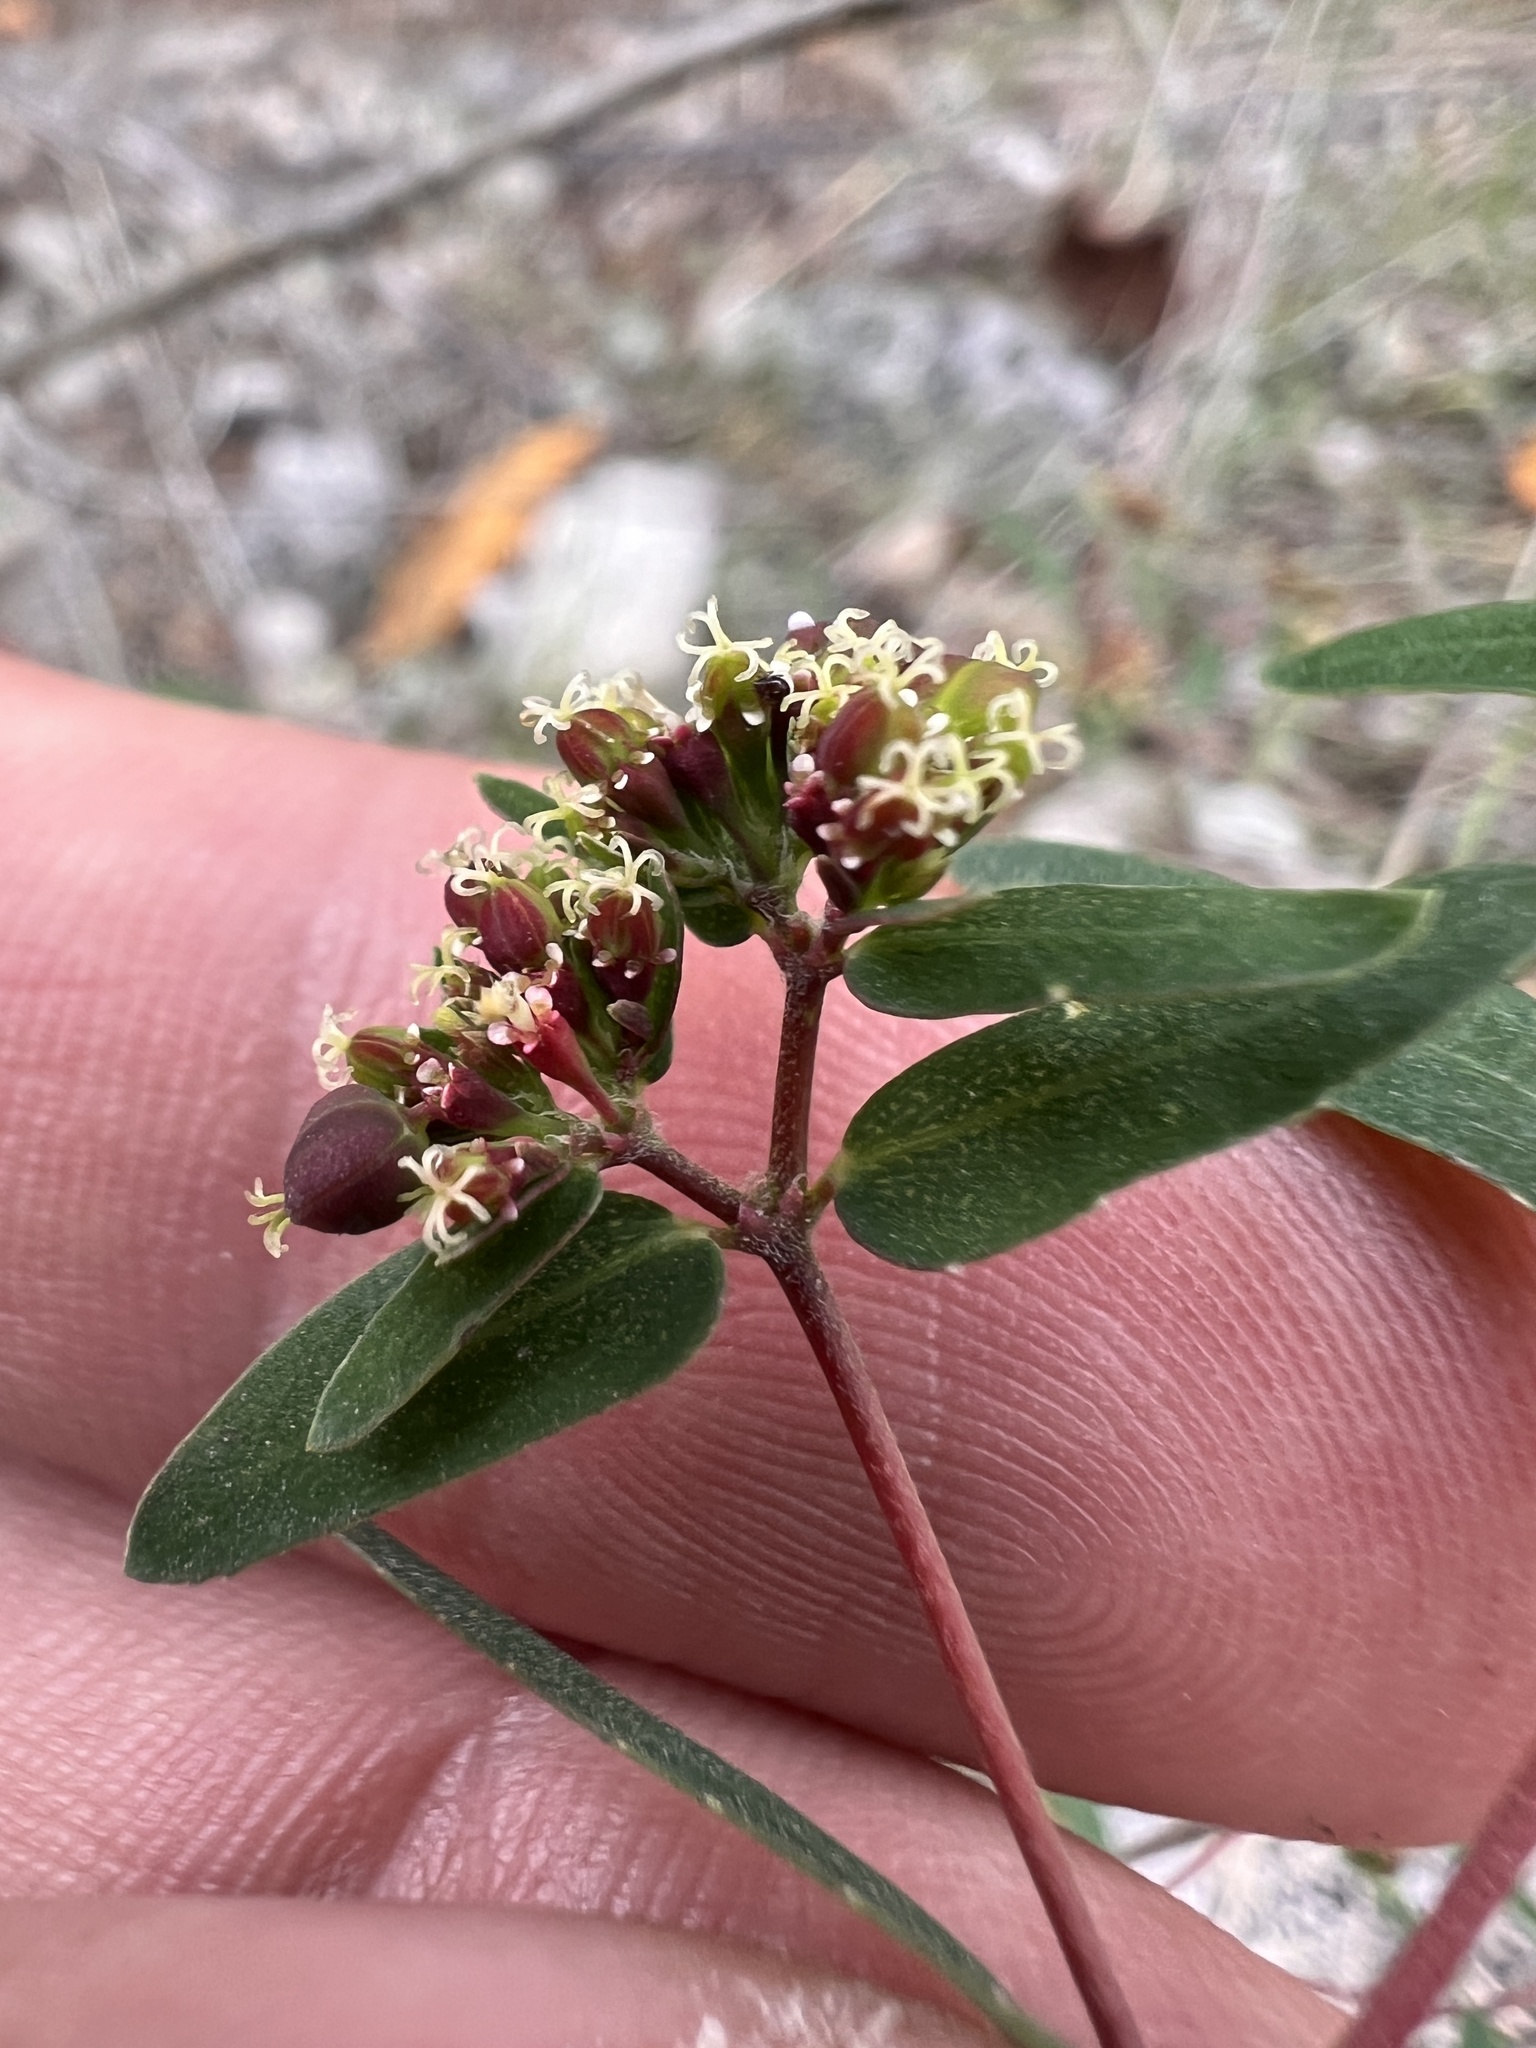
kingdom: Plantae
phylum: Tracheophyta
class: Magnoliopsida
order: Malpighiales
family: Euphorbiaceae
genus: Euphorbia
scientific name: Euphorbia nutans
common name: Eyebane
